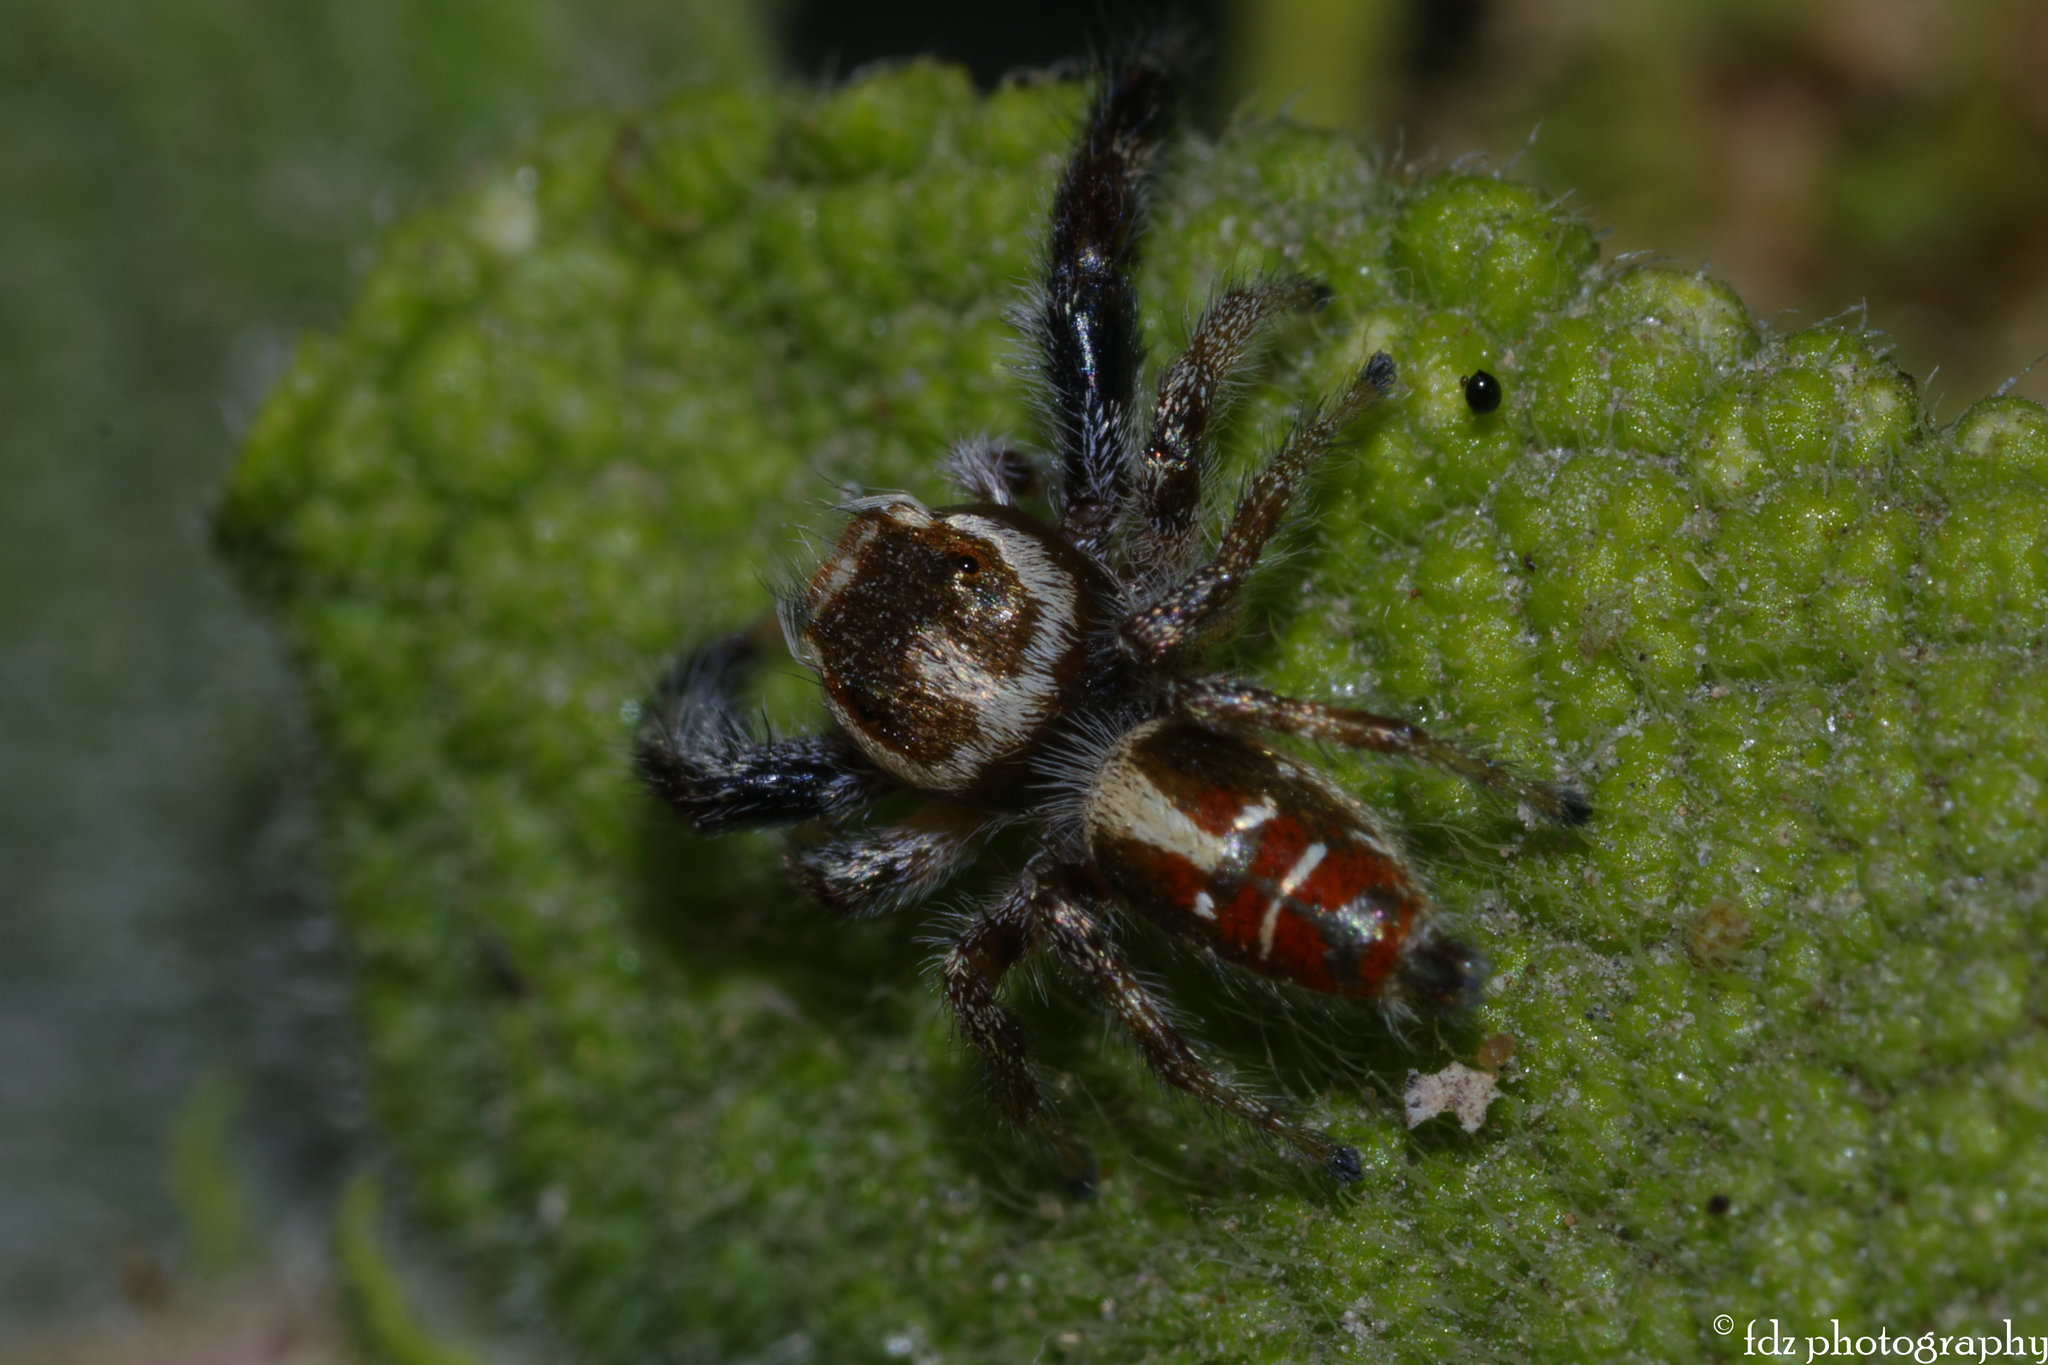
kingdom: Animalia
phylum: Arthropoda
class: Arachnida
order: Araneae
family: Salticidae
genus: Thyene
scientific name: Thyene imperialis
